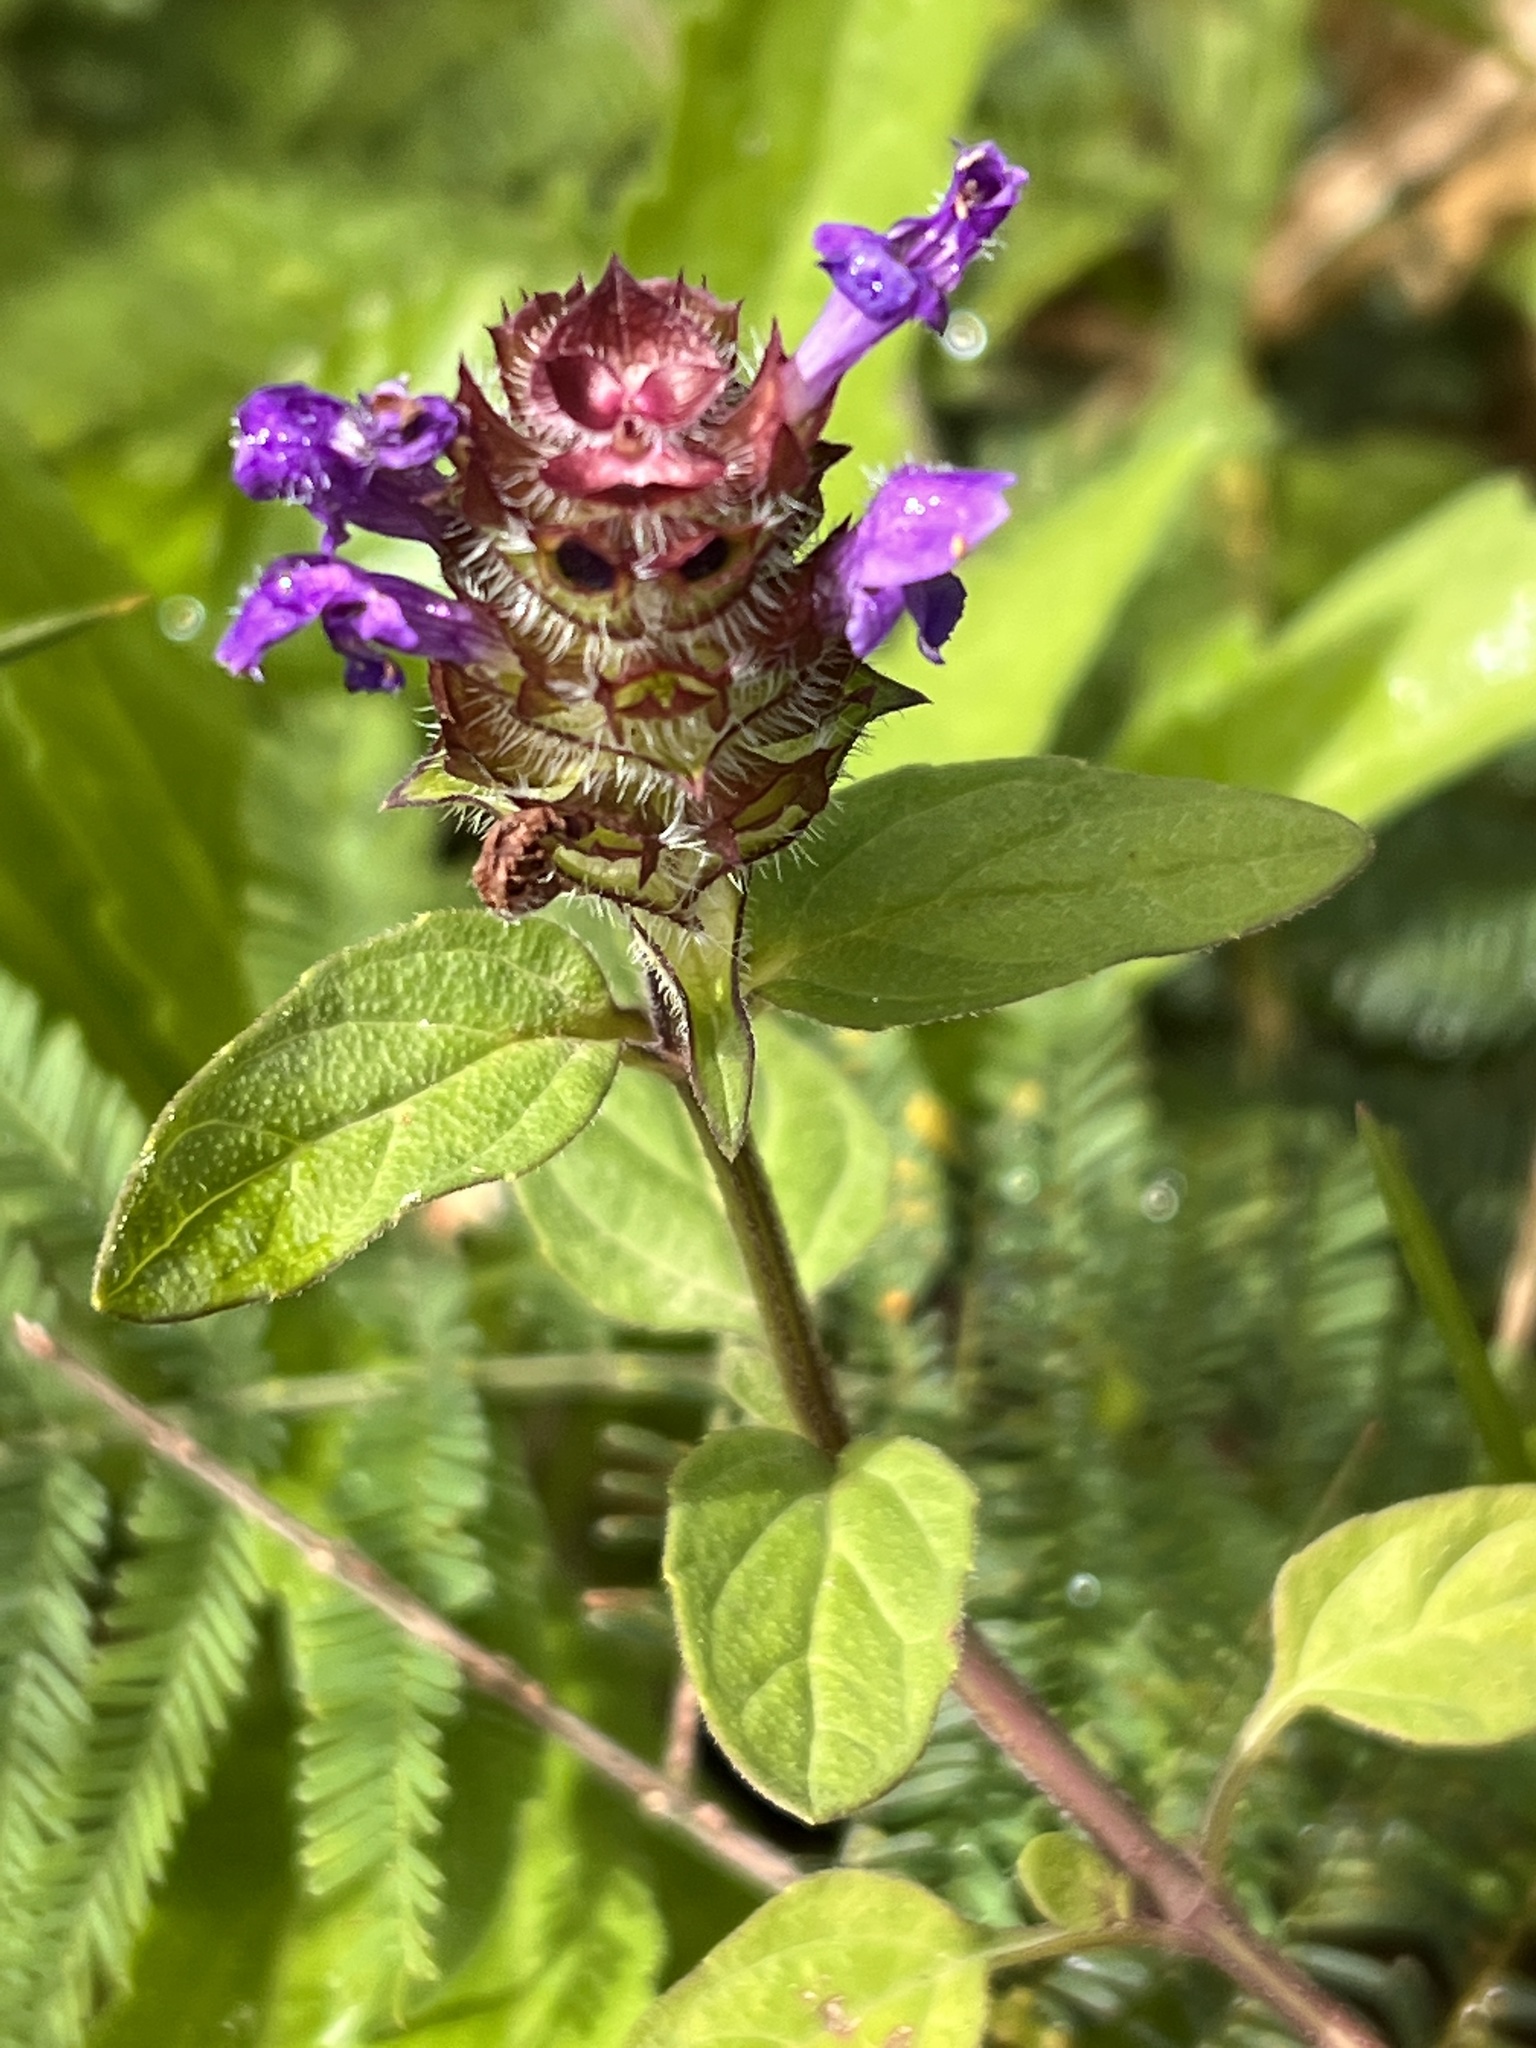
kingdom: Plantae
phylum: Tracheophyta
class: Magnoliopsida
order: Lamiales
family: Lamiaceae
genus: Prunella
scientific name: Prunella vulgaris
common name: Heal-all
